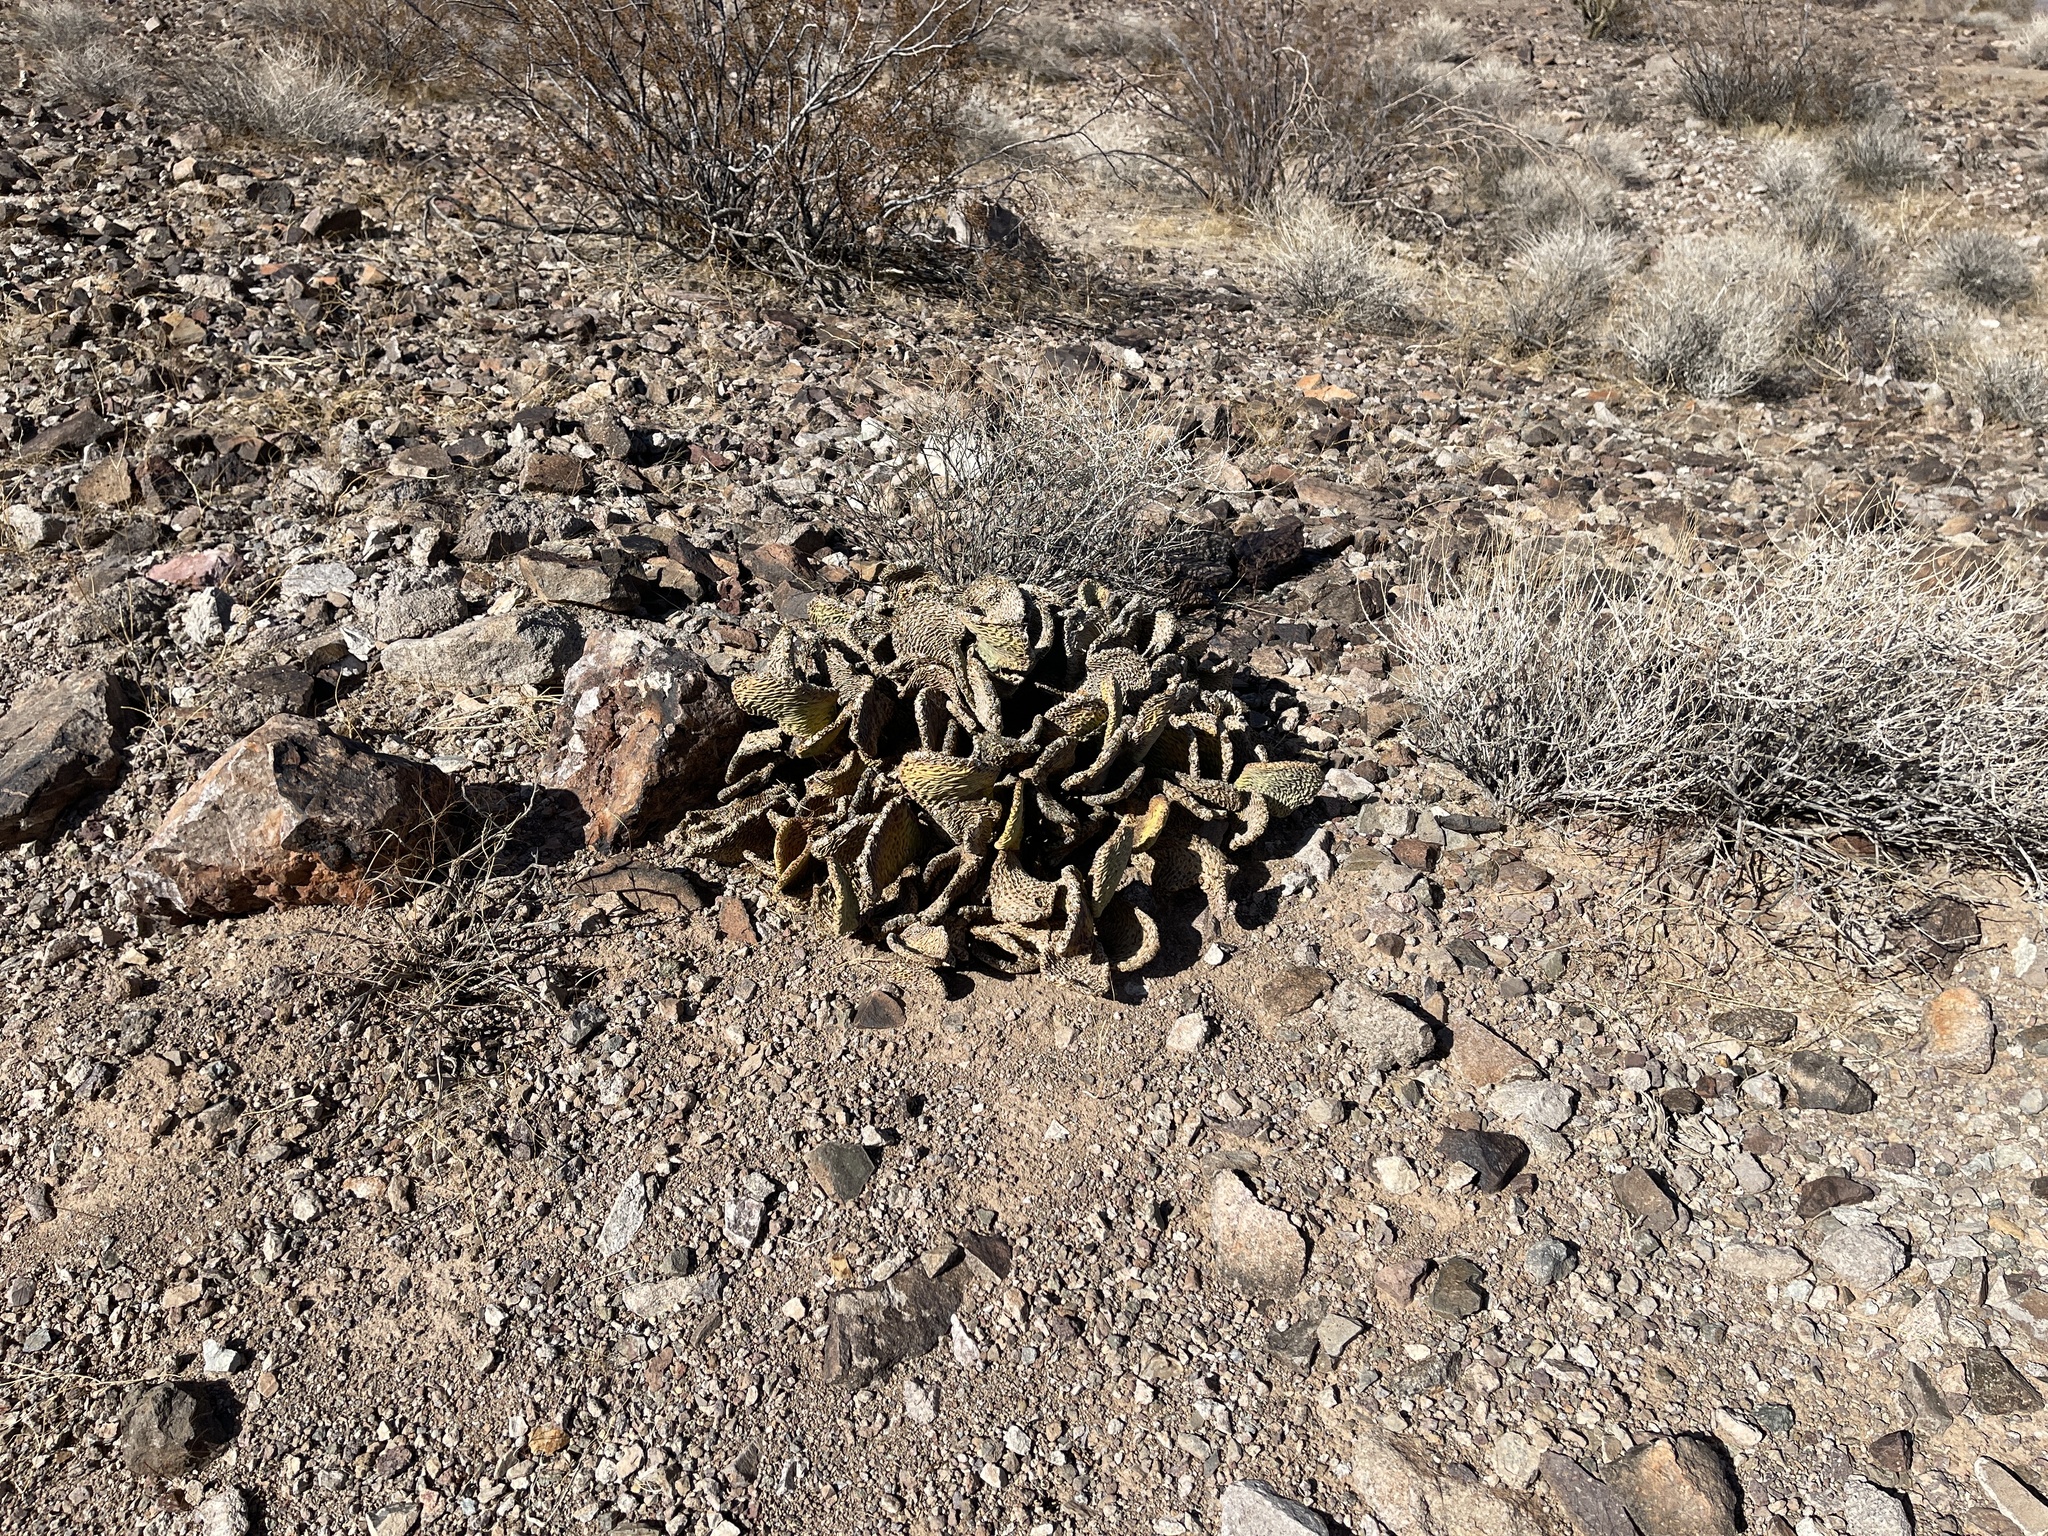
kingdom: Plantae
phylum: Tracheophyta
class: Magnoliopsida
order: Caryophyllales
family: Cactaceae
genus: Opuntia
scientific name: Opuntia basilaris
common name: Beavertail prickly-pear
